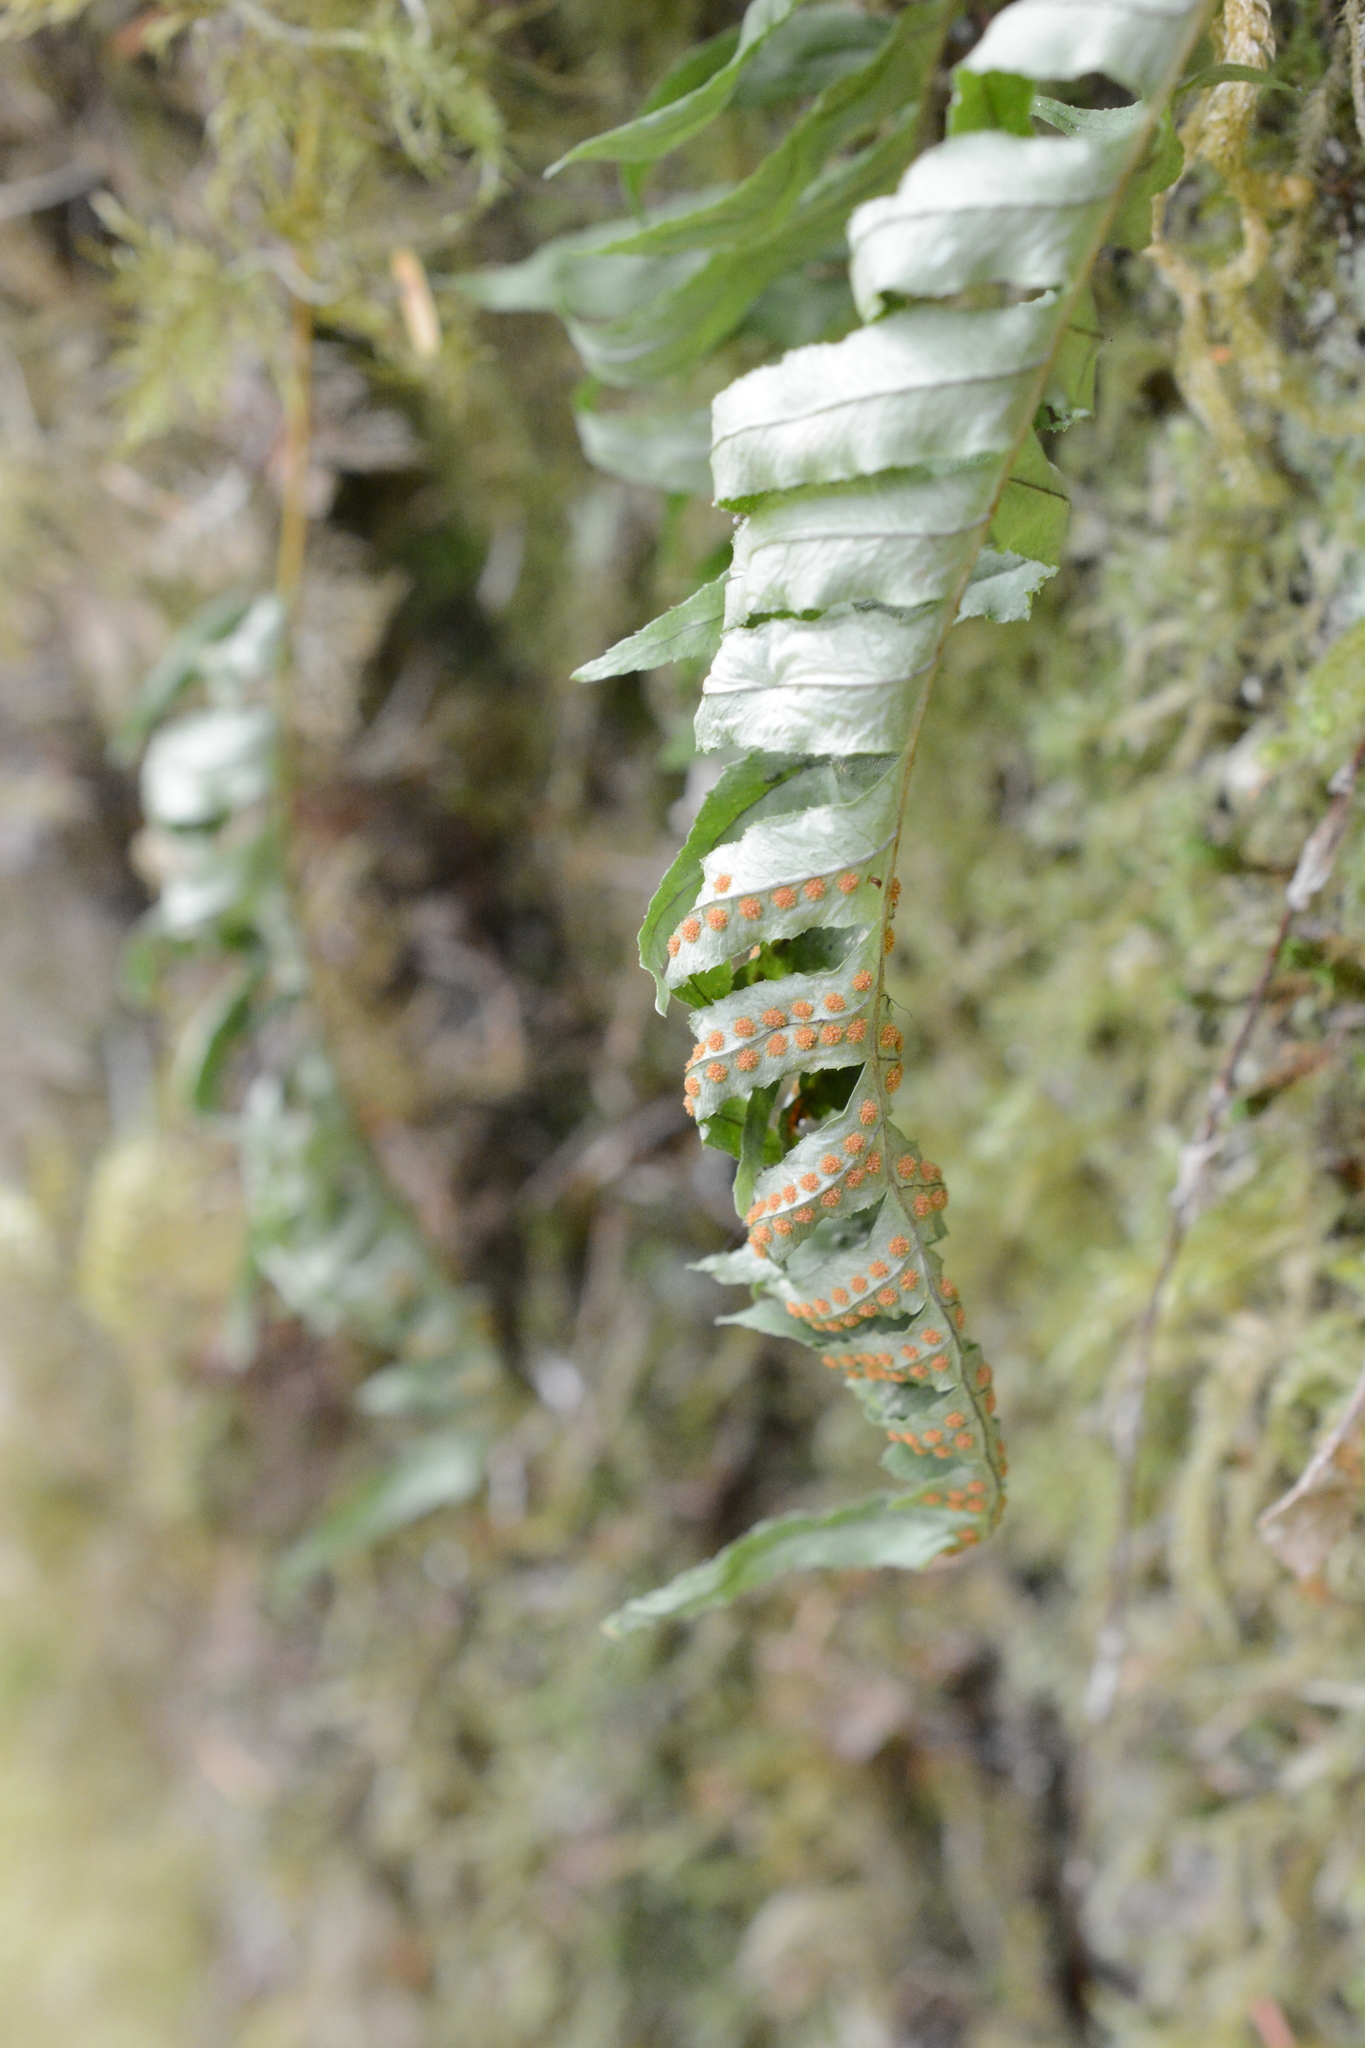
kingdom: Plantae
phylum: Tracheophyta
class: Polypodiopsida
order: Polypodiales
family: Polypodiaceae
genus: Polypodium
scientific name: Polypodium glycyrrhiza
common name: Licorice fern
